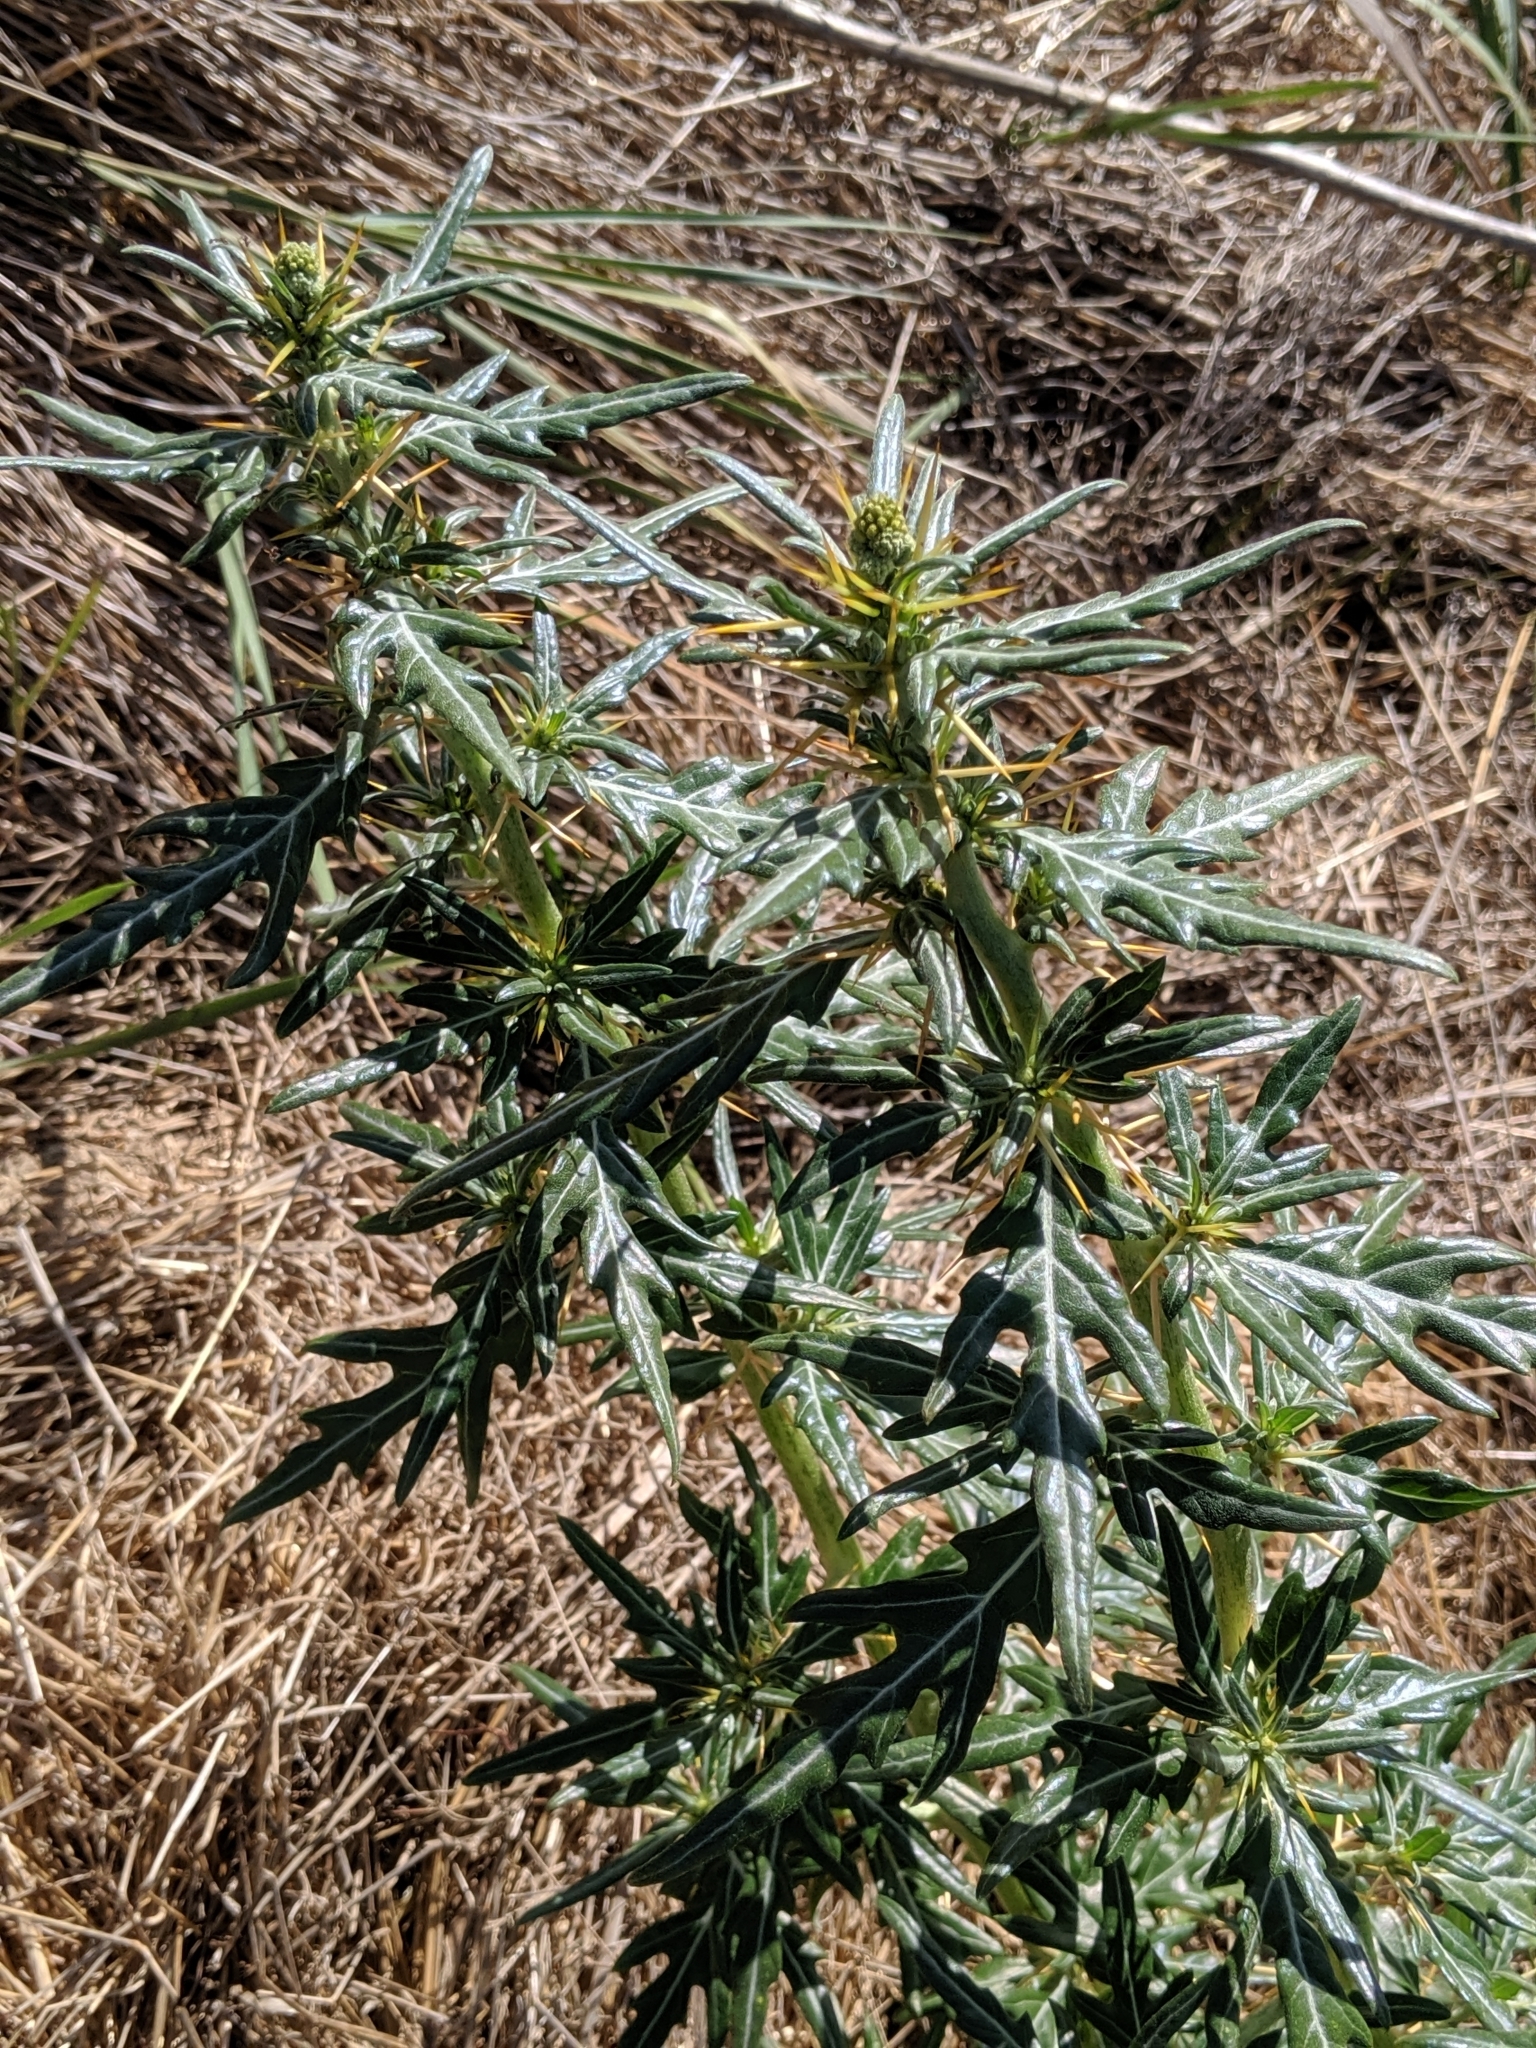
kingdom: Plantae
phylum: Tracheophyta
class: Magnoliopsida
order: Asterales
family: Asteraceae
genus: Xanthium
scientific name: Xanthium spinosum
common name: Spiny cocklebur
